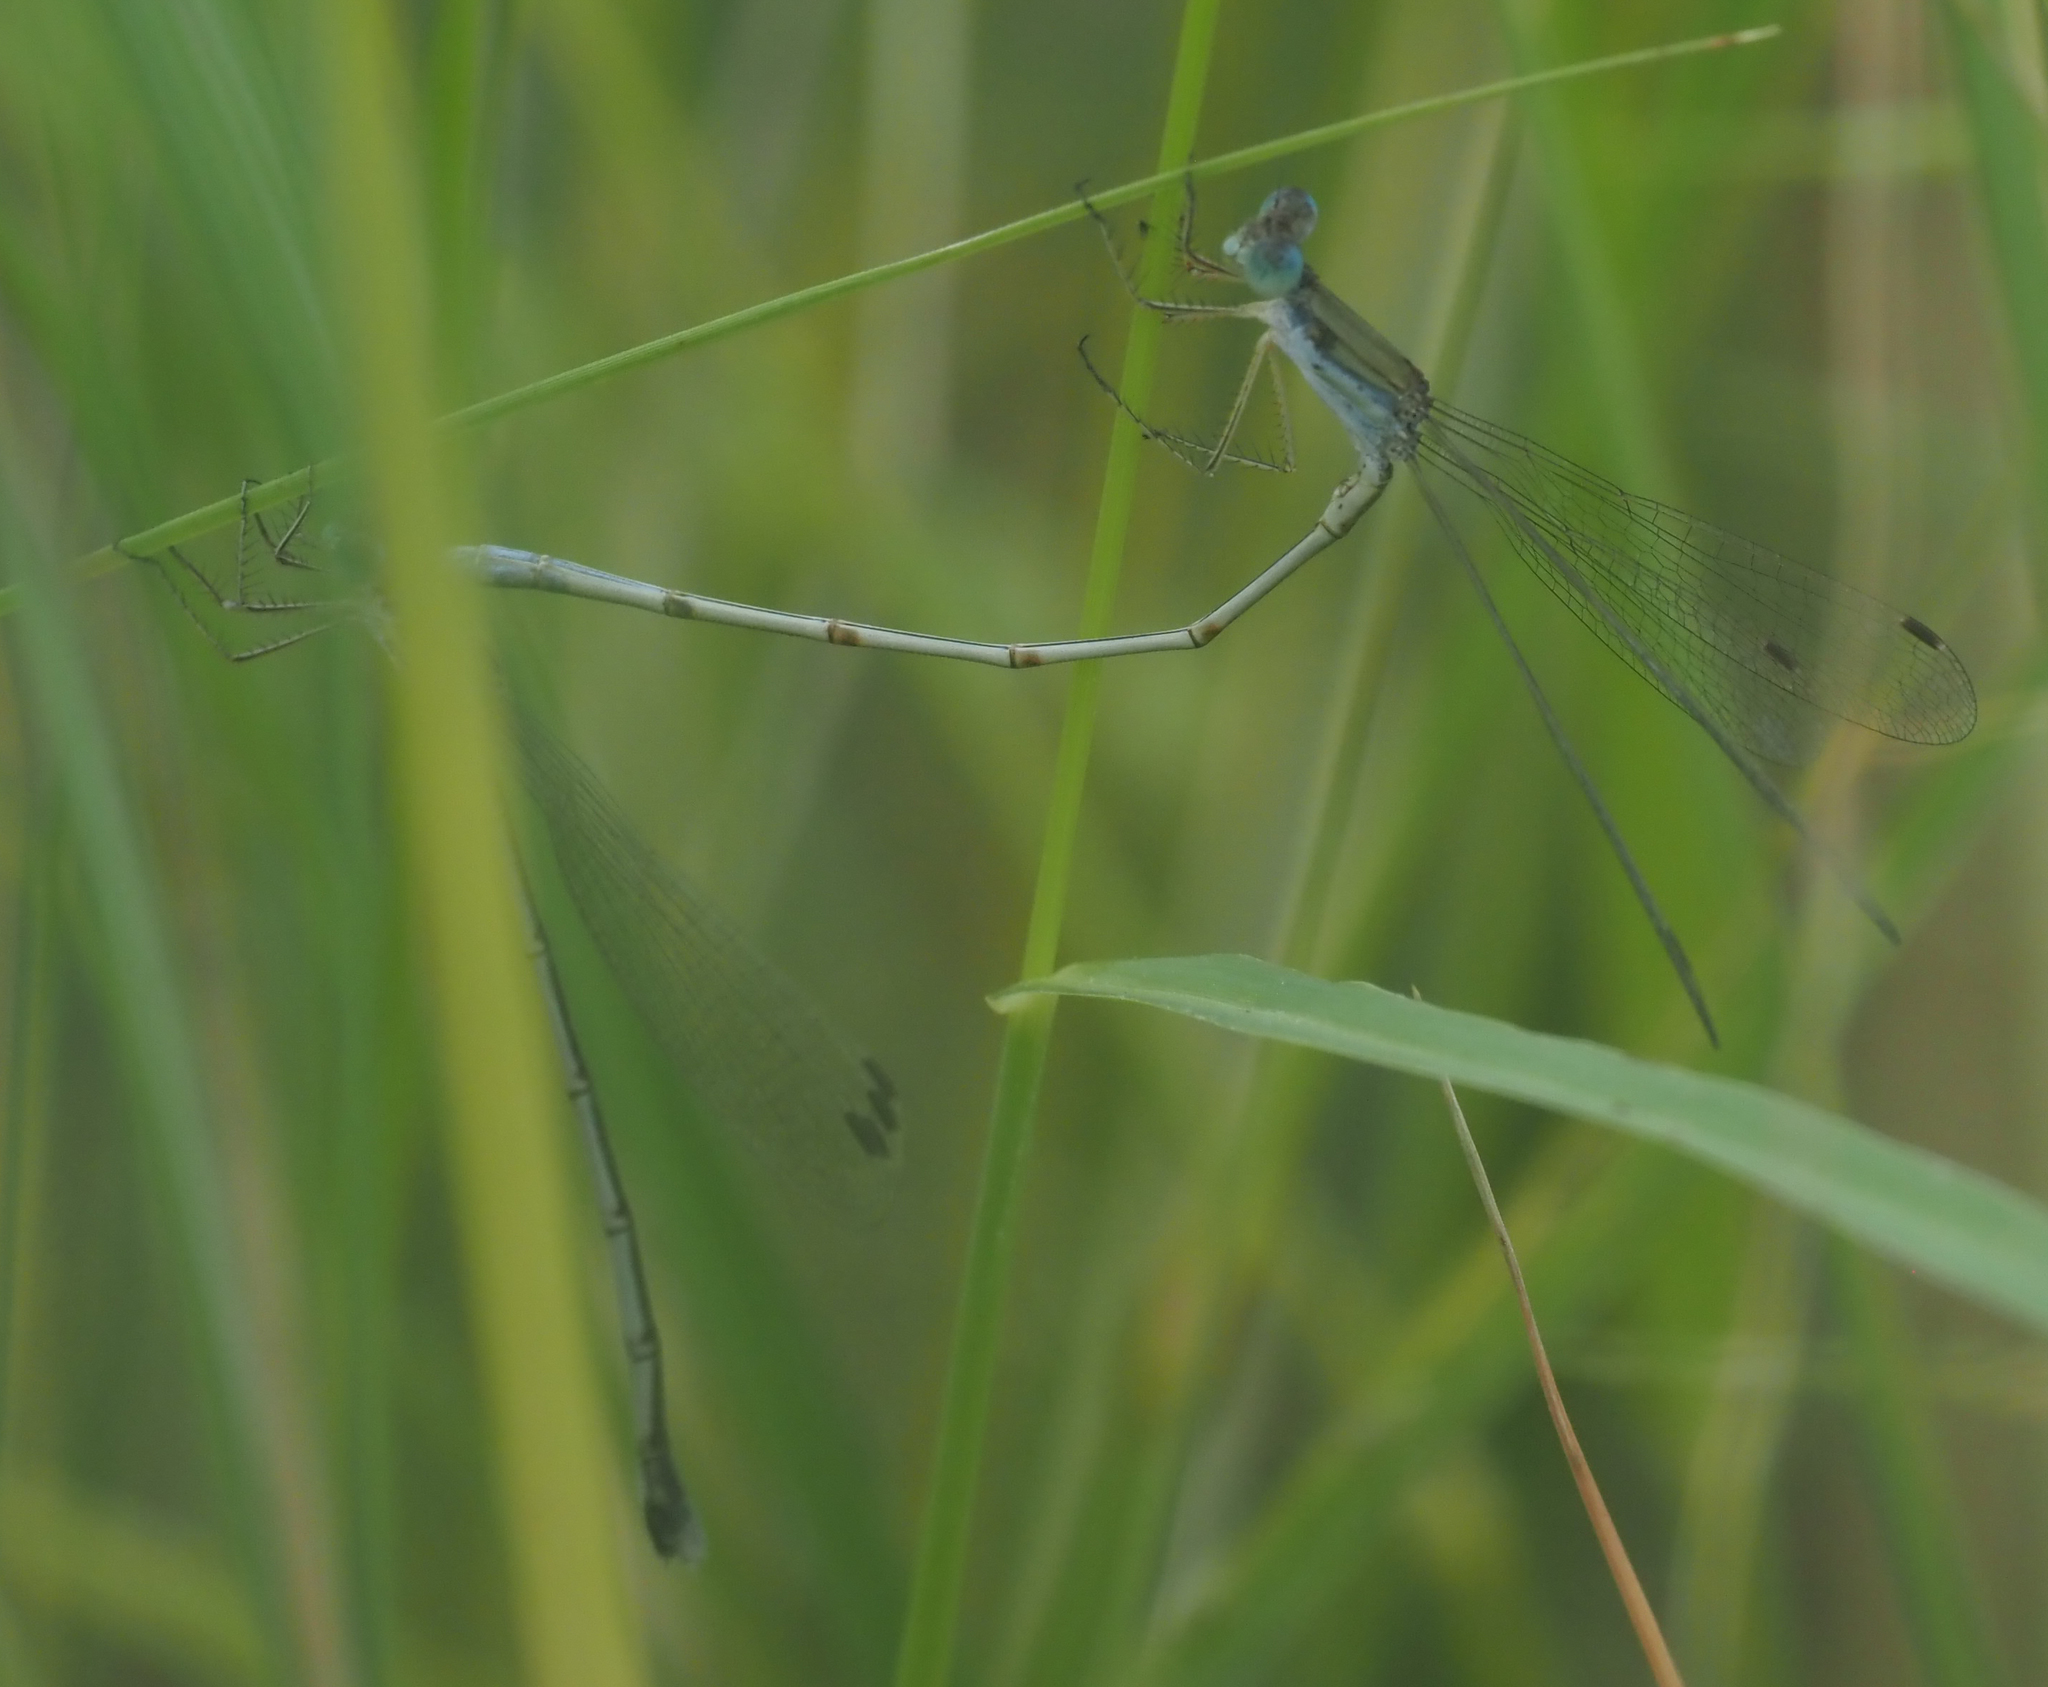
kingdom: Animalia
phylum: Arthropoda
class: Insecta
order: Odonata
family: Lestidae
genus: Lestes
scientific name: Lestes pallidus
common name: Pallid spreadwing
